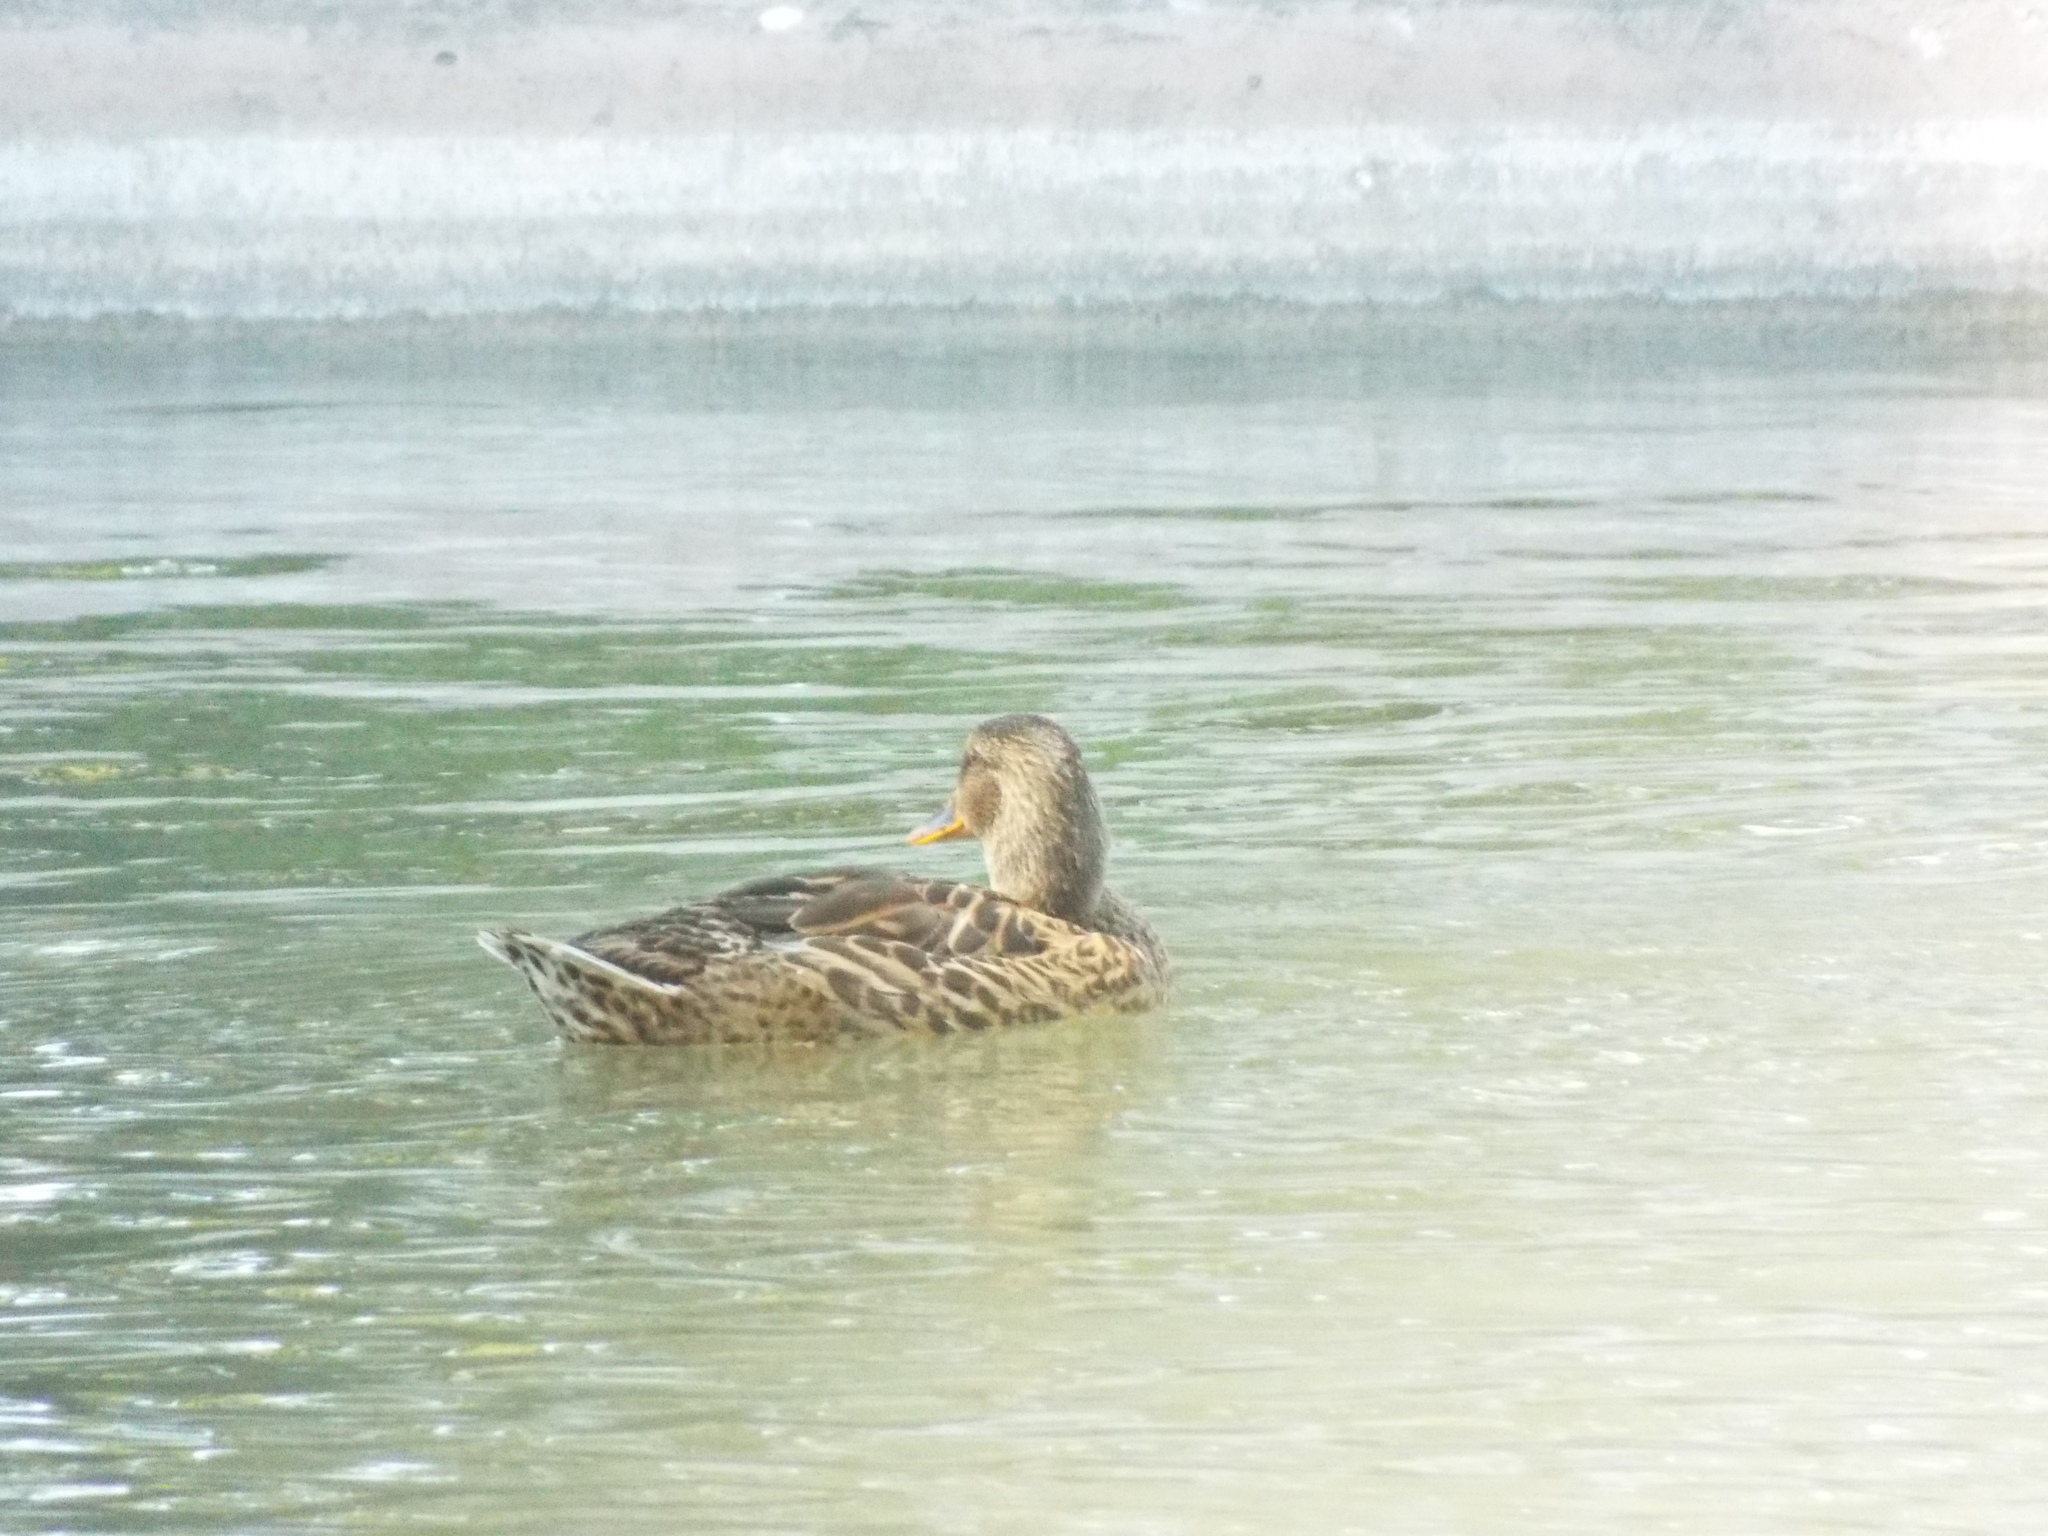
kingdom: Animalia
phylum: Chordata
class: Aves
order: Anseriformes
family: Anatidae
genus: Anas
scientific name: Anas platyrhynchos
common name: Mallard
